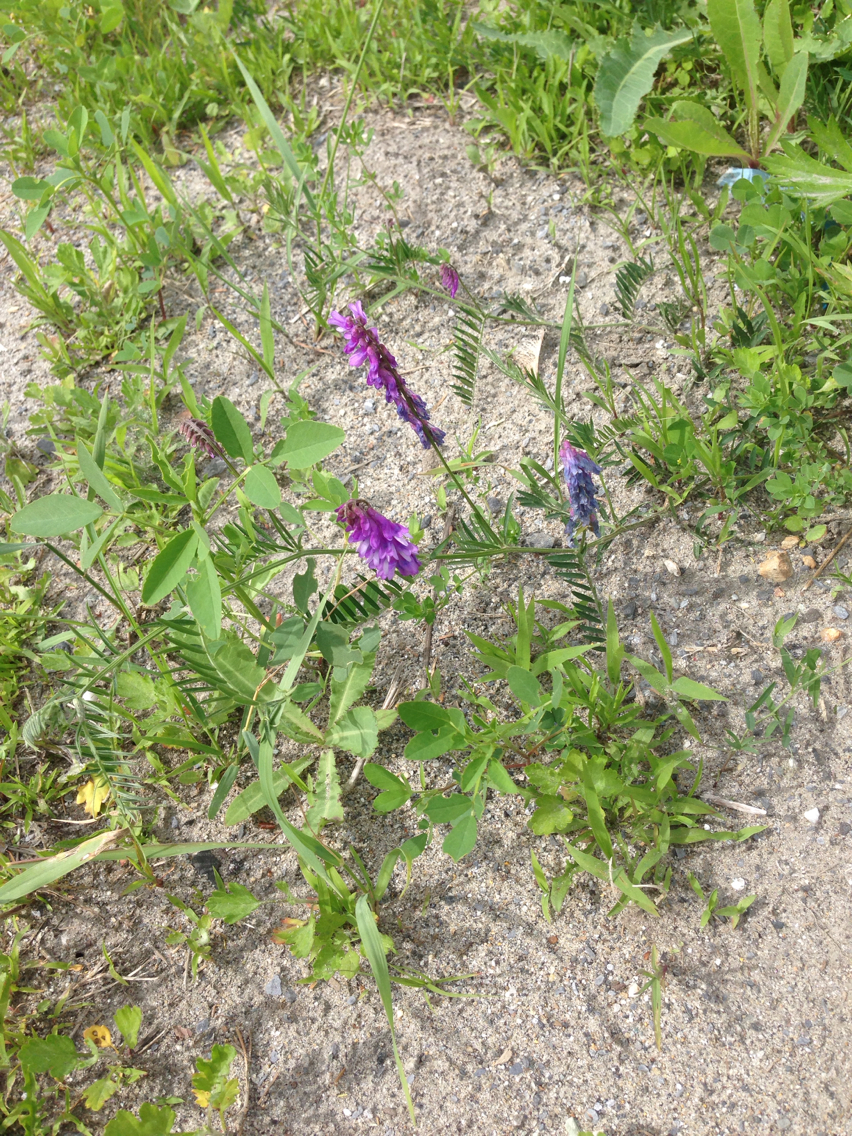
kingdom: Plantae
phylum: Tracheophyta
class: Magnoliopsida
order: Fabales
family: Fabaceae
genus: Vicia
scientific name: Vicia cracca
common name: Bird vetch
